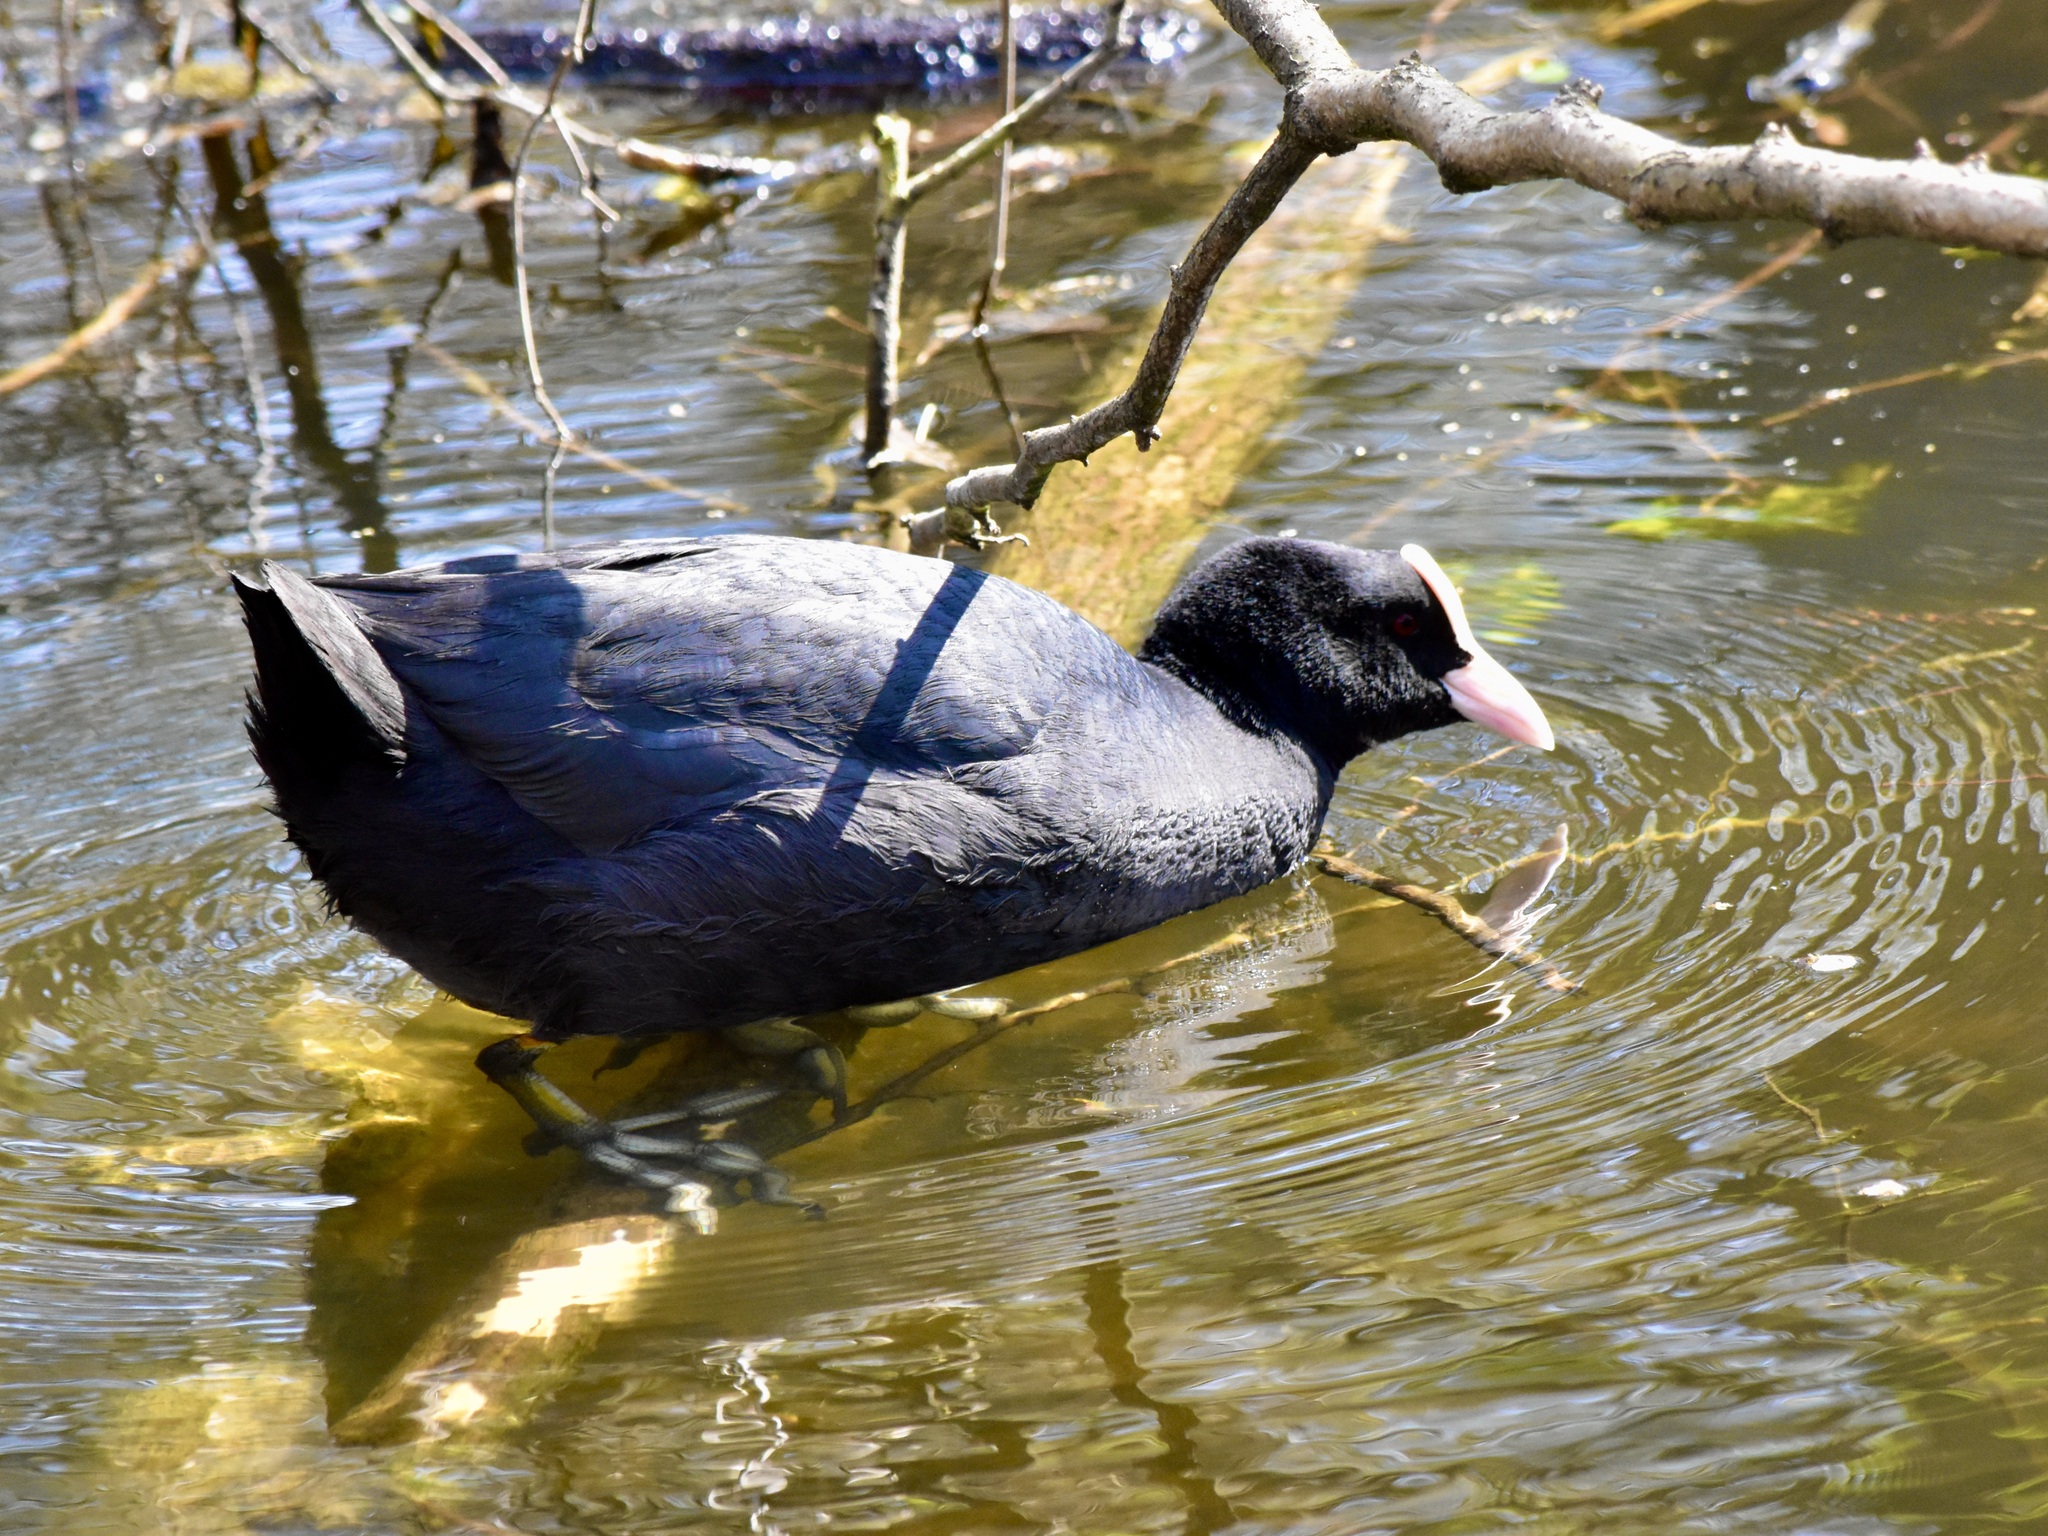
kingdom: Animalia
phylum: Chordata
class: Aves
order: Gruiformes
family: Rallidae
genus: Fulica
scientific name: Fulica atra
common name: Eurasian coot
